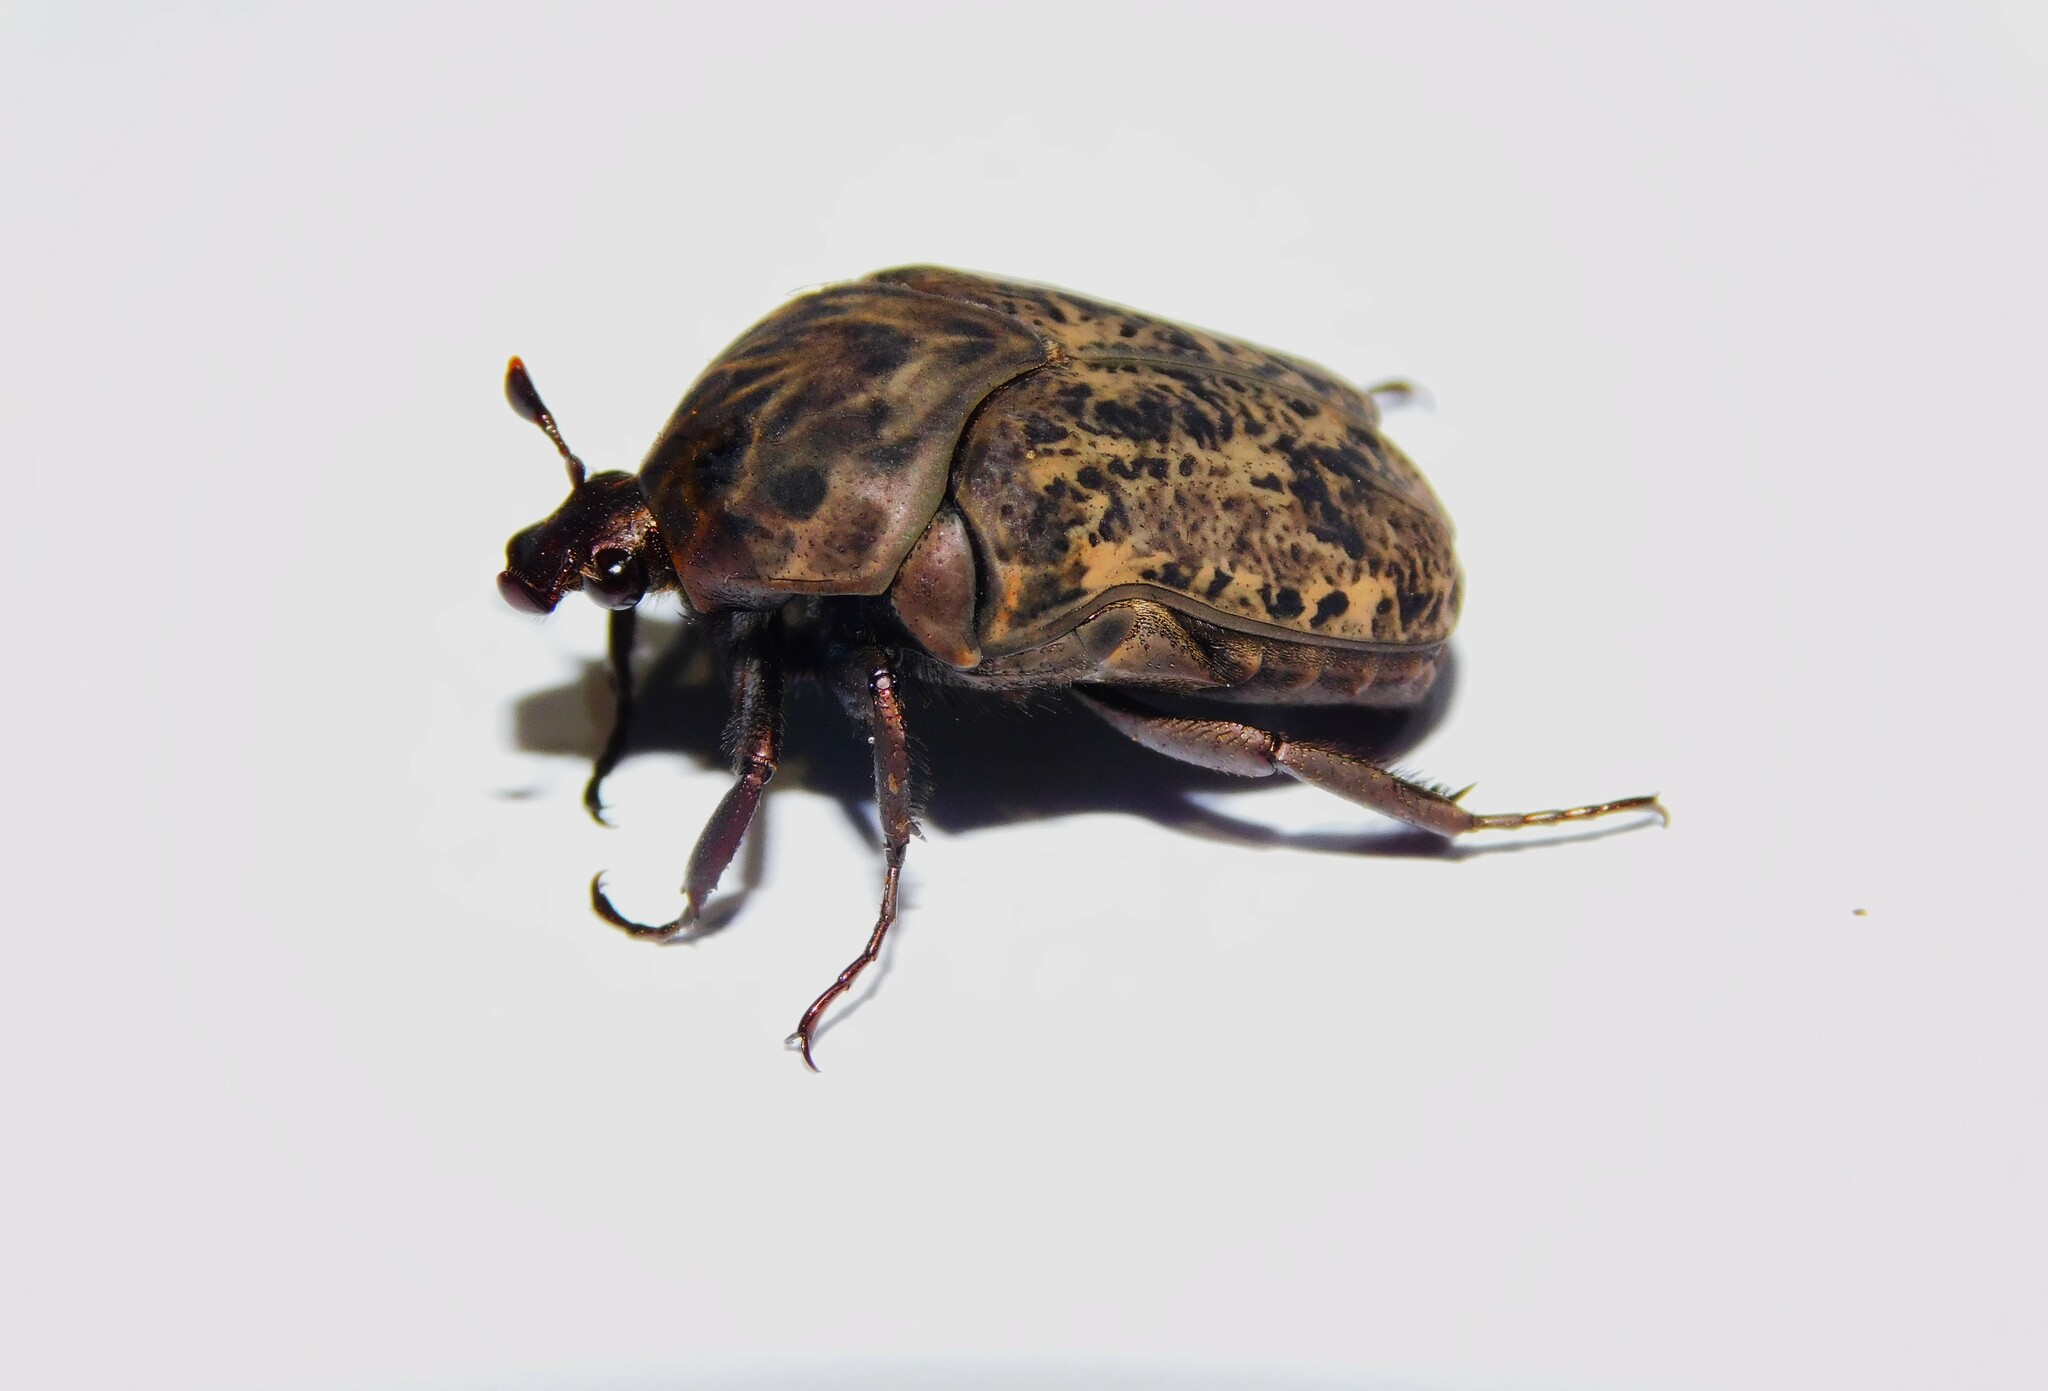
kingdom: Animalia
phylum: Arthropoda
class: Insecta
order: Coleoptera
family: Scarabaeidae
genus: Gymnetis
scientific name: Gymnetis chalcipes
